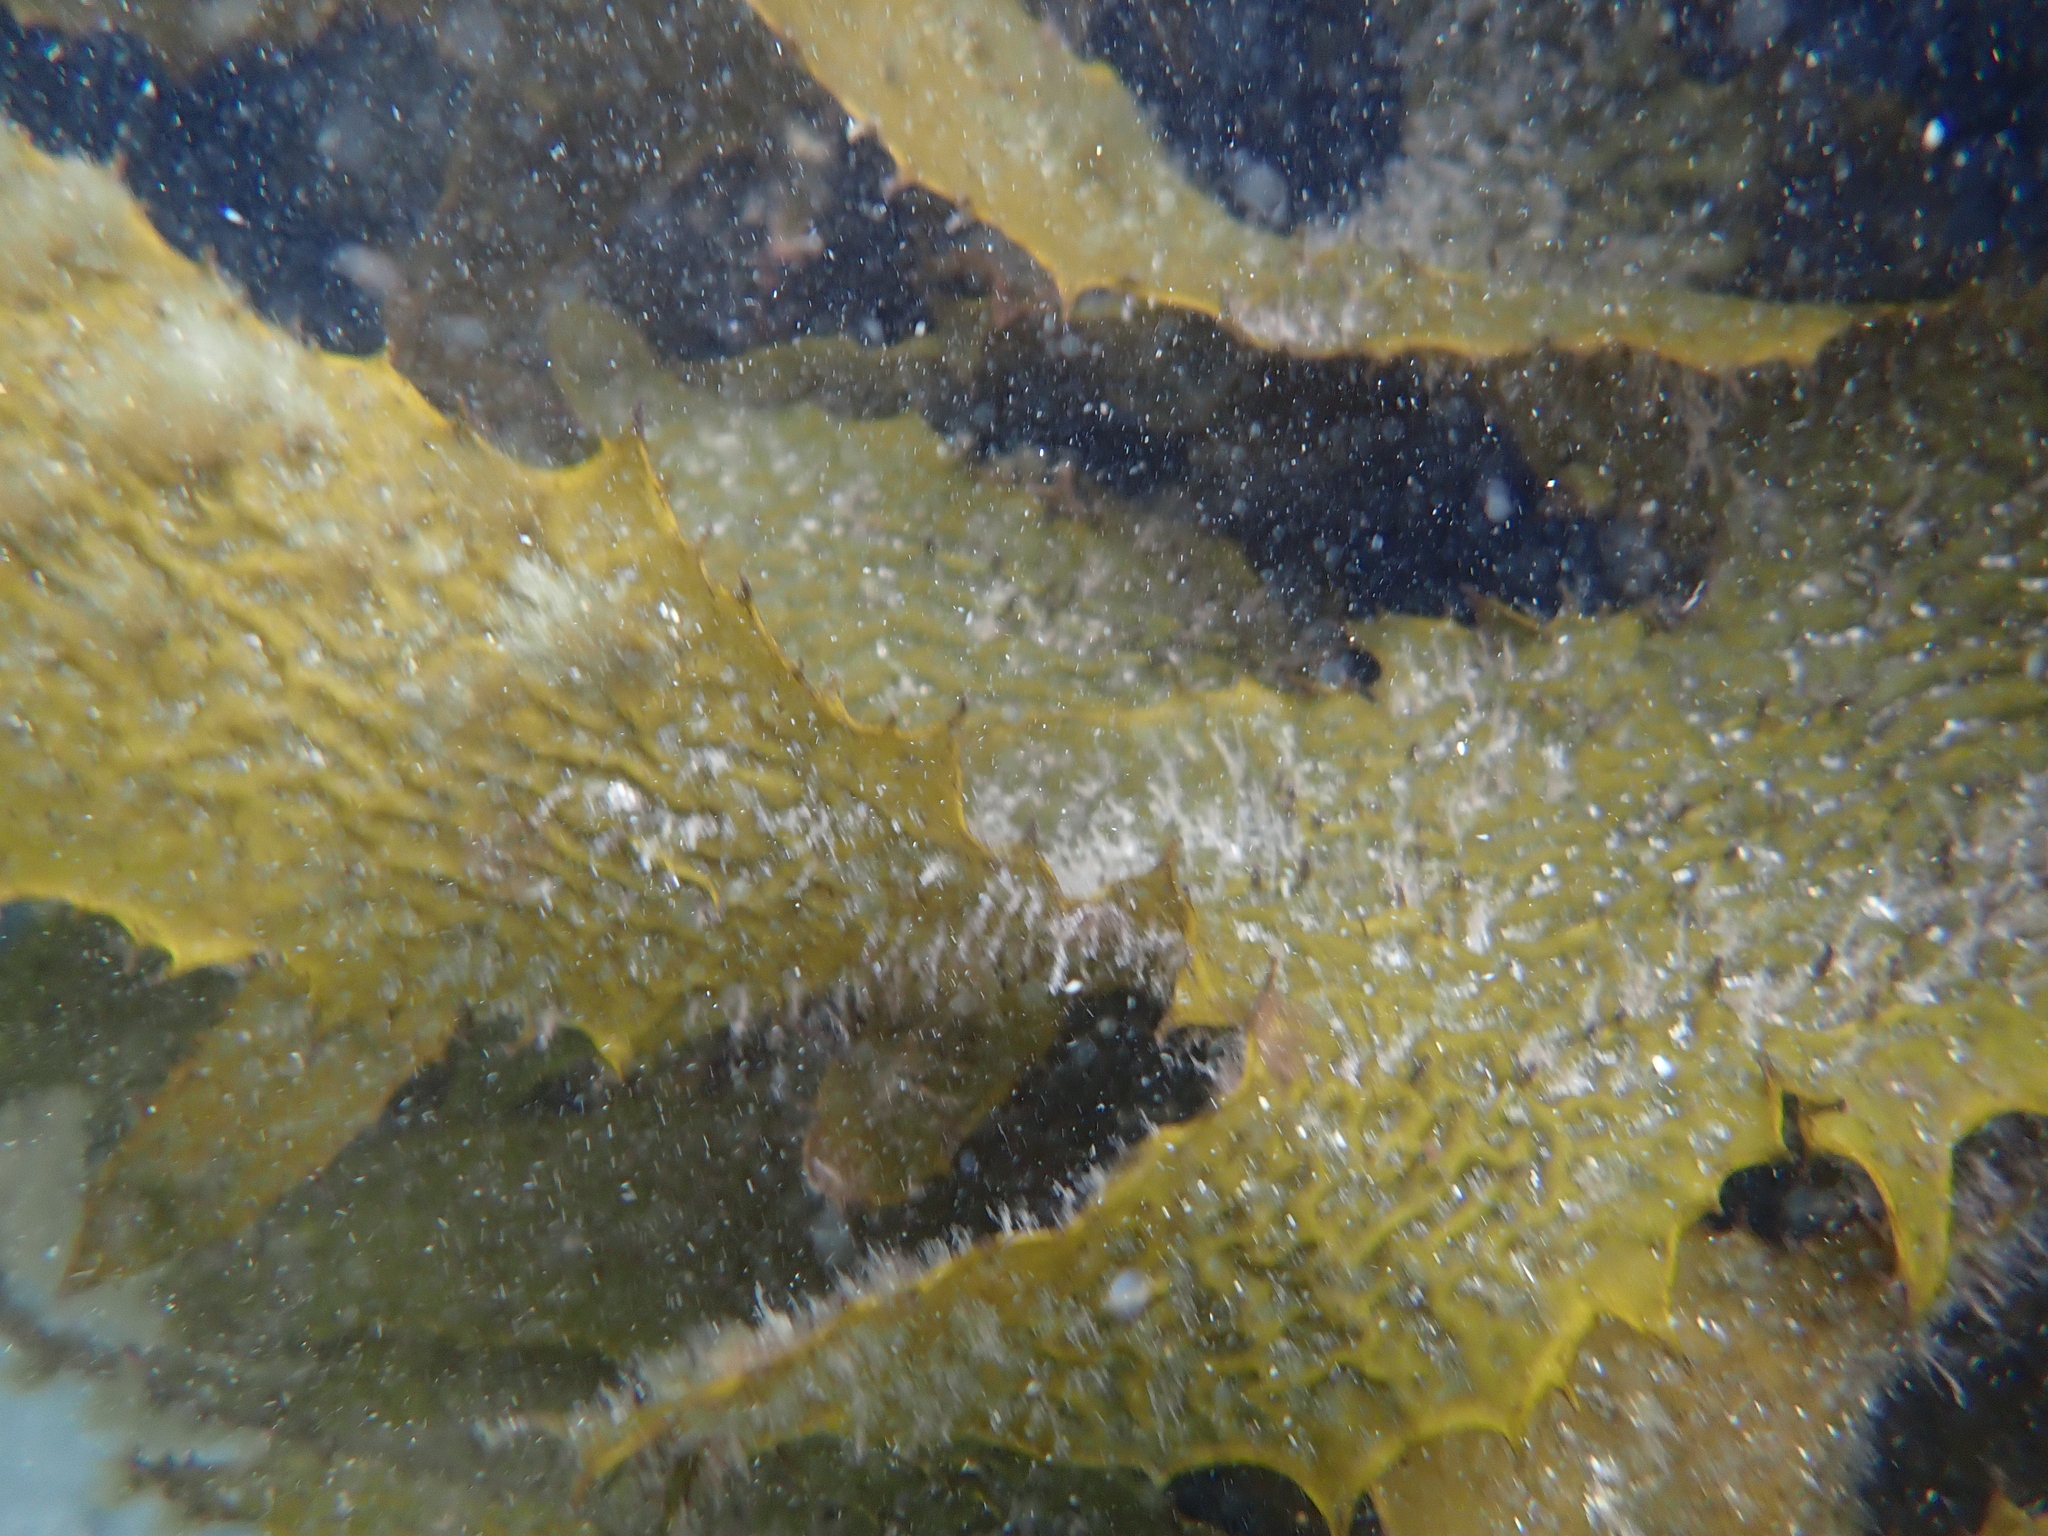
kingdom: Chromista
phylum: Ochrophyta
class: Phaeophyceae
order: Laminariales
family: Lessoniaceae
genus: Ecklonia
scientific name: Ecklonia radiata
